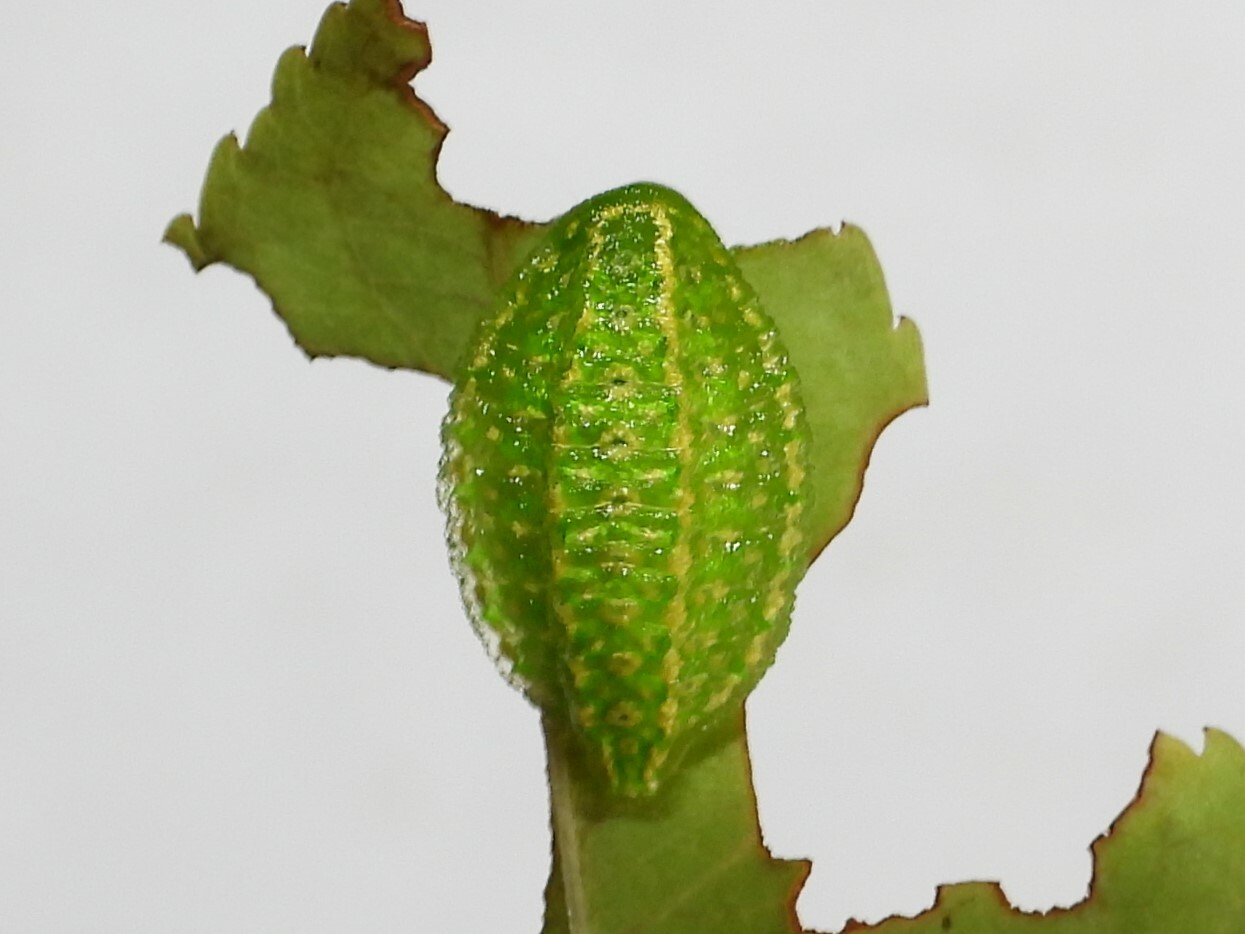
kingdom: Animalia
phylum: Arthropoda
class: Insecta
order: Lepidoptera
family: Limacodidae
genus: Lithacodes
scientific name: Lithacodes fasciola
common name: Yellow-shouldered slug moth
